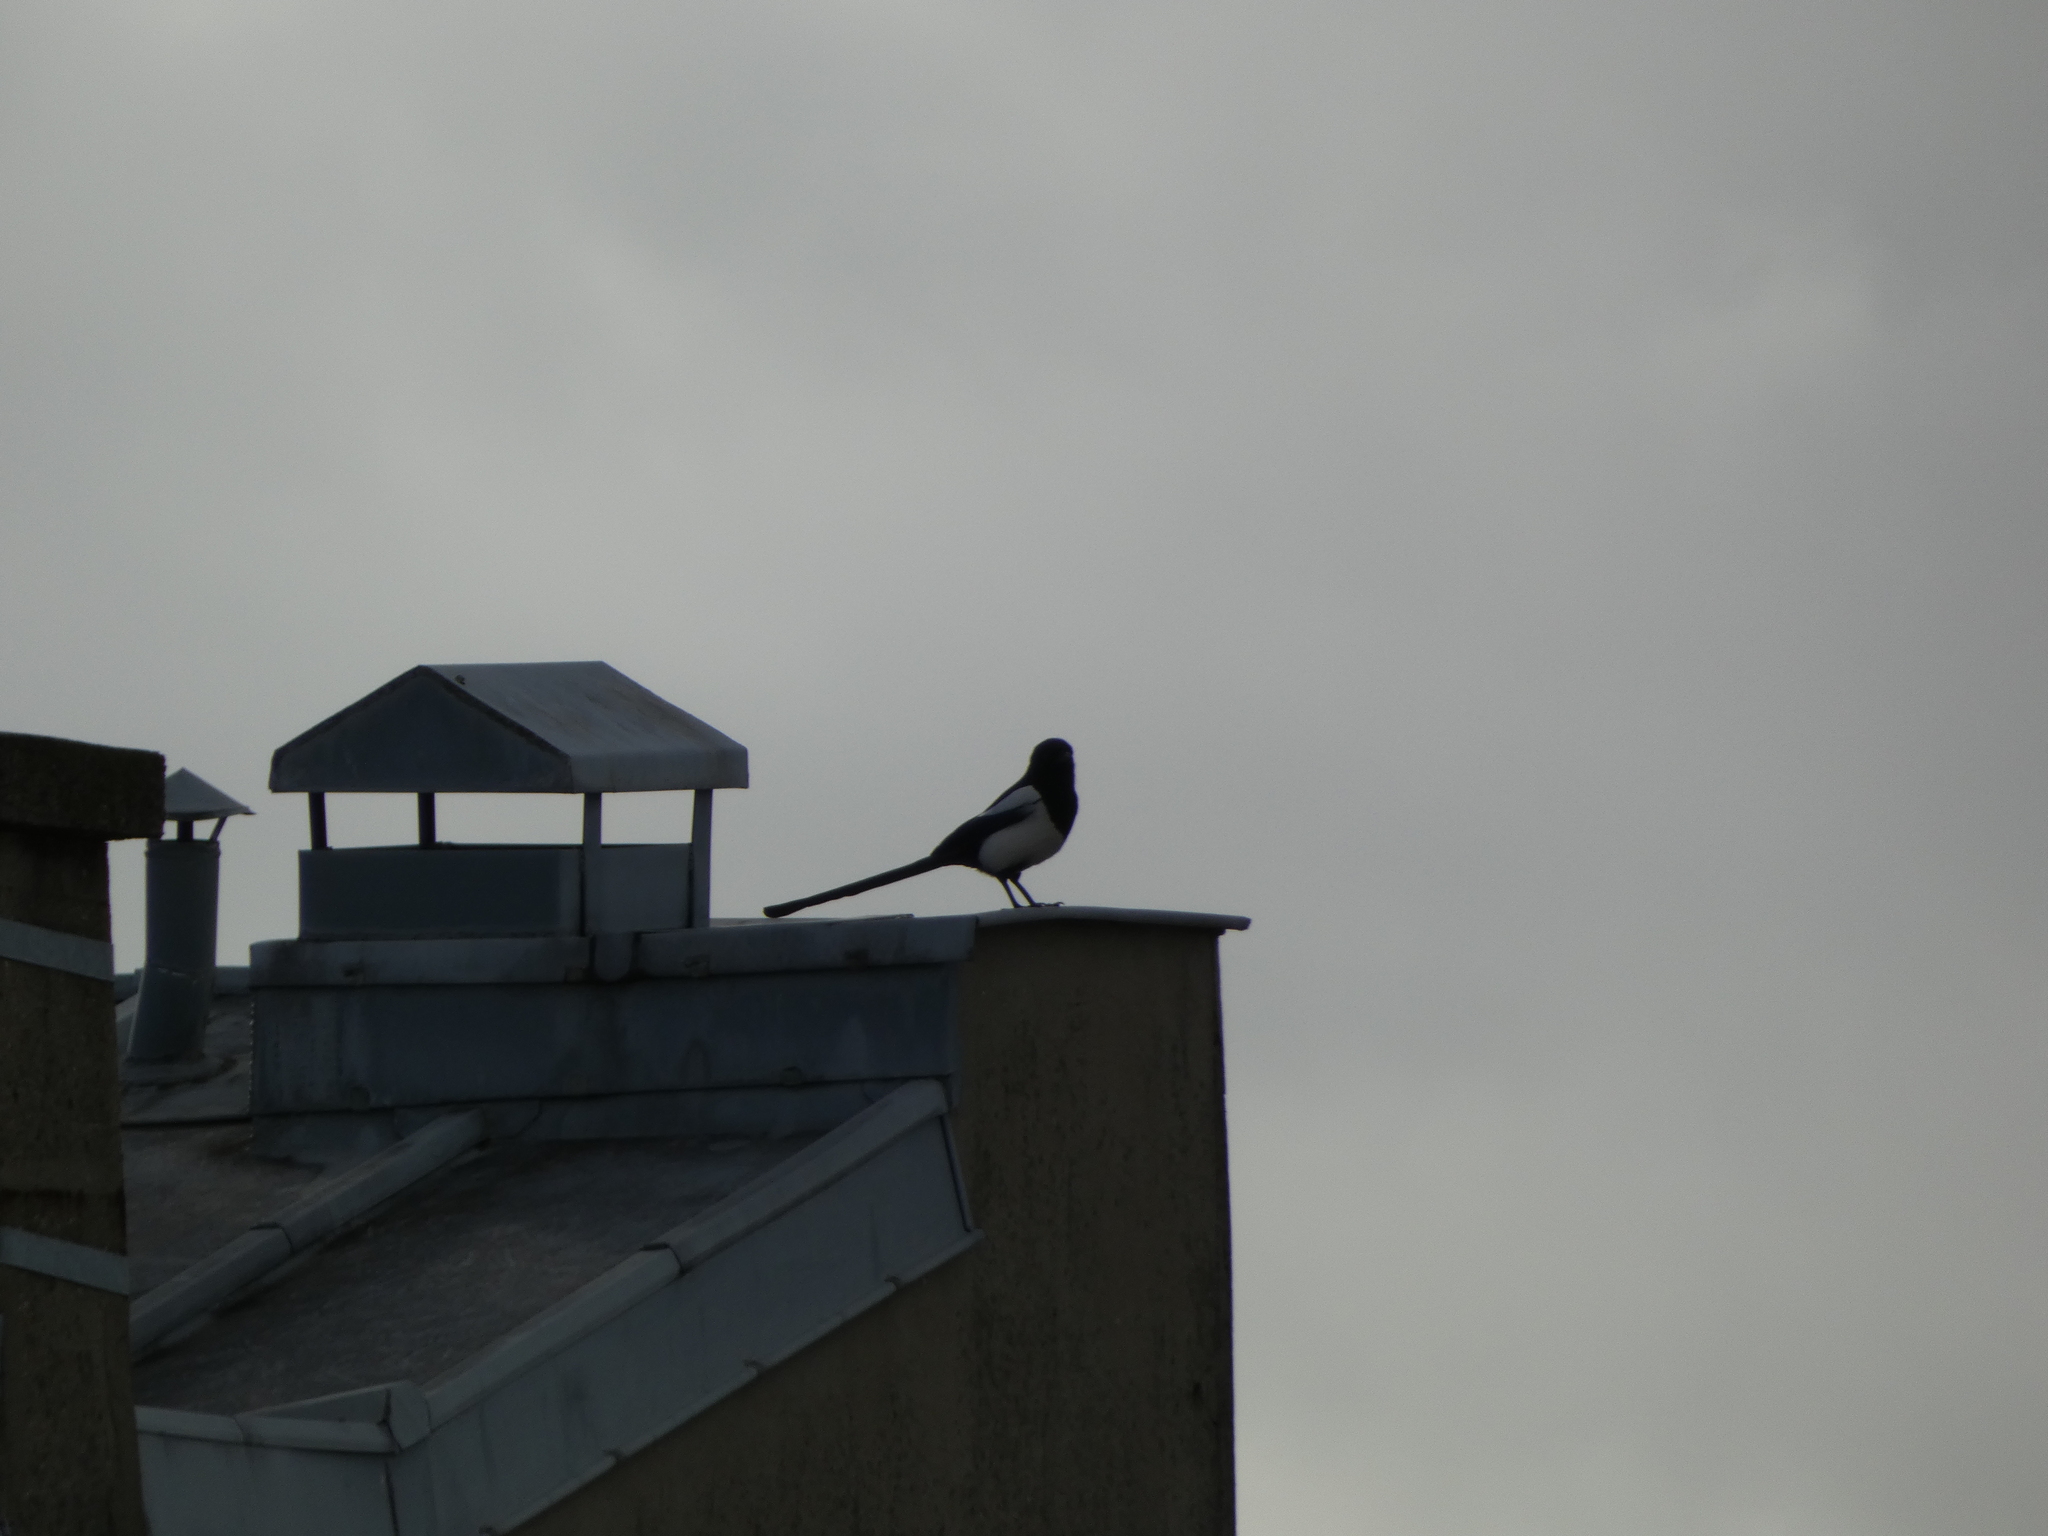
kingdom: Animalia
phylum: Chordata
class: Aves
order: Passeriformes
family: Corvidae
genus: Pica
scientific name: Pica pica
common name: Eurasian magpie
